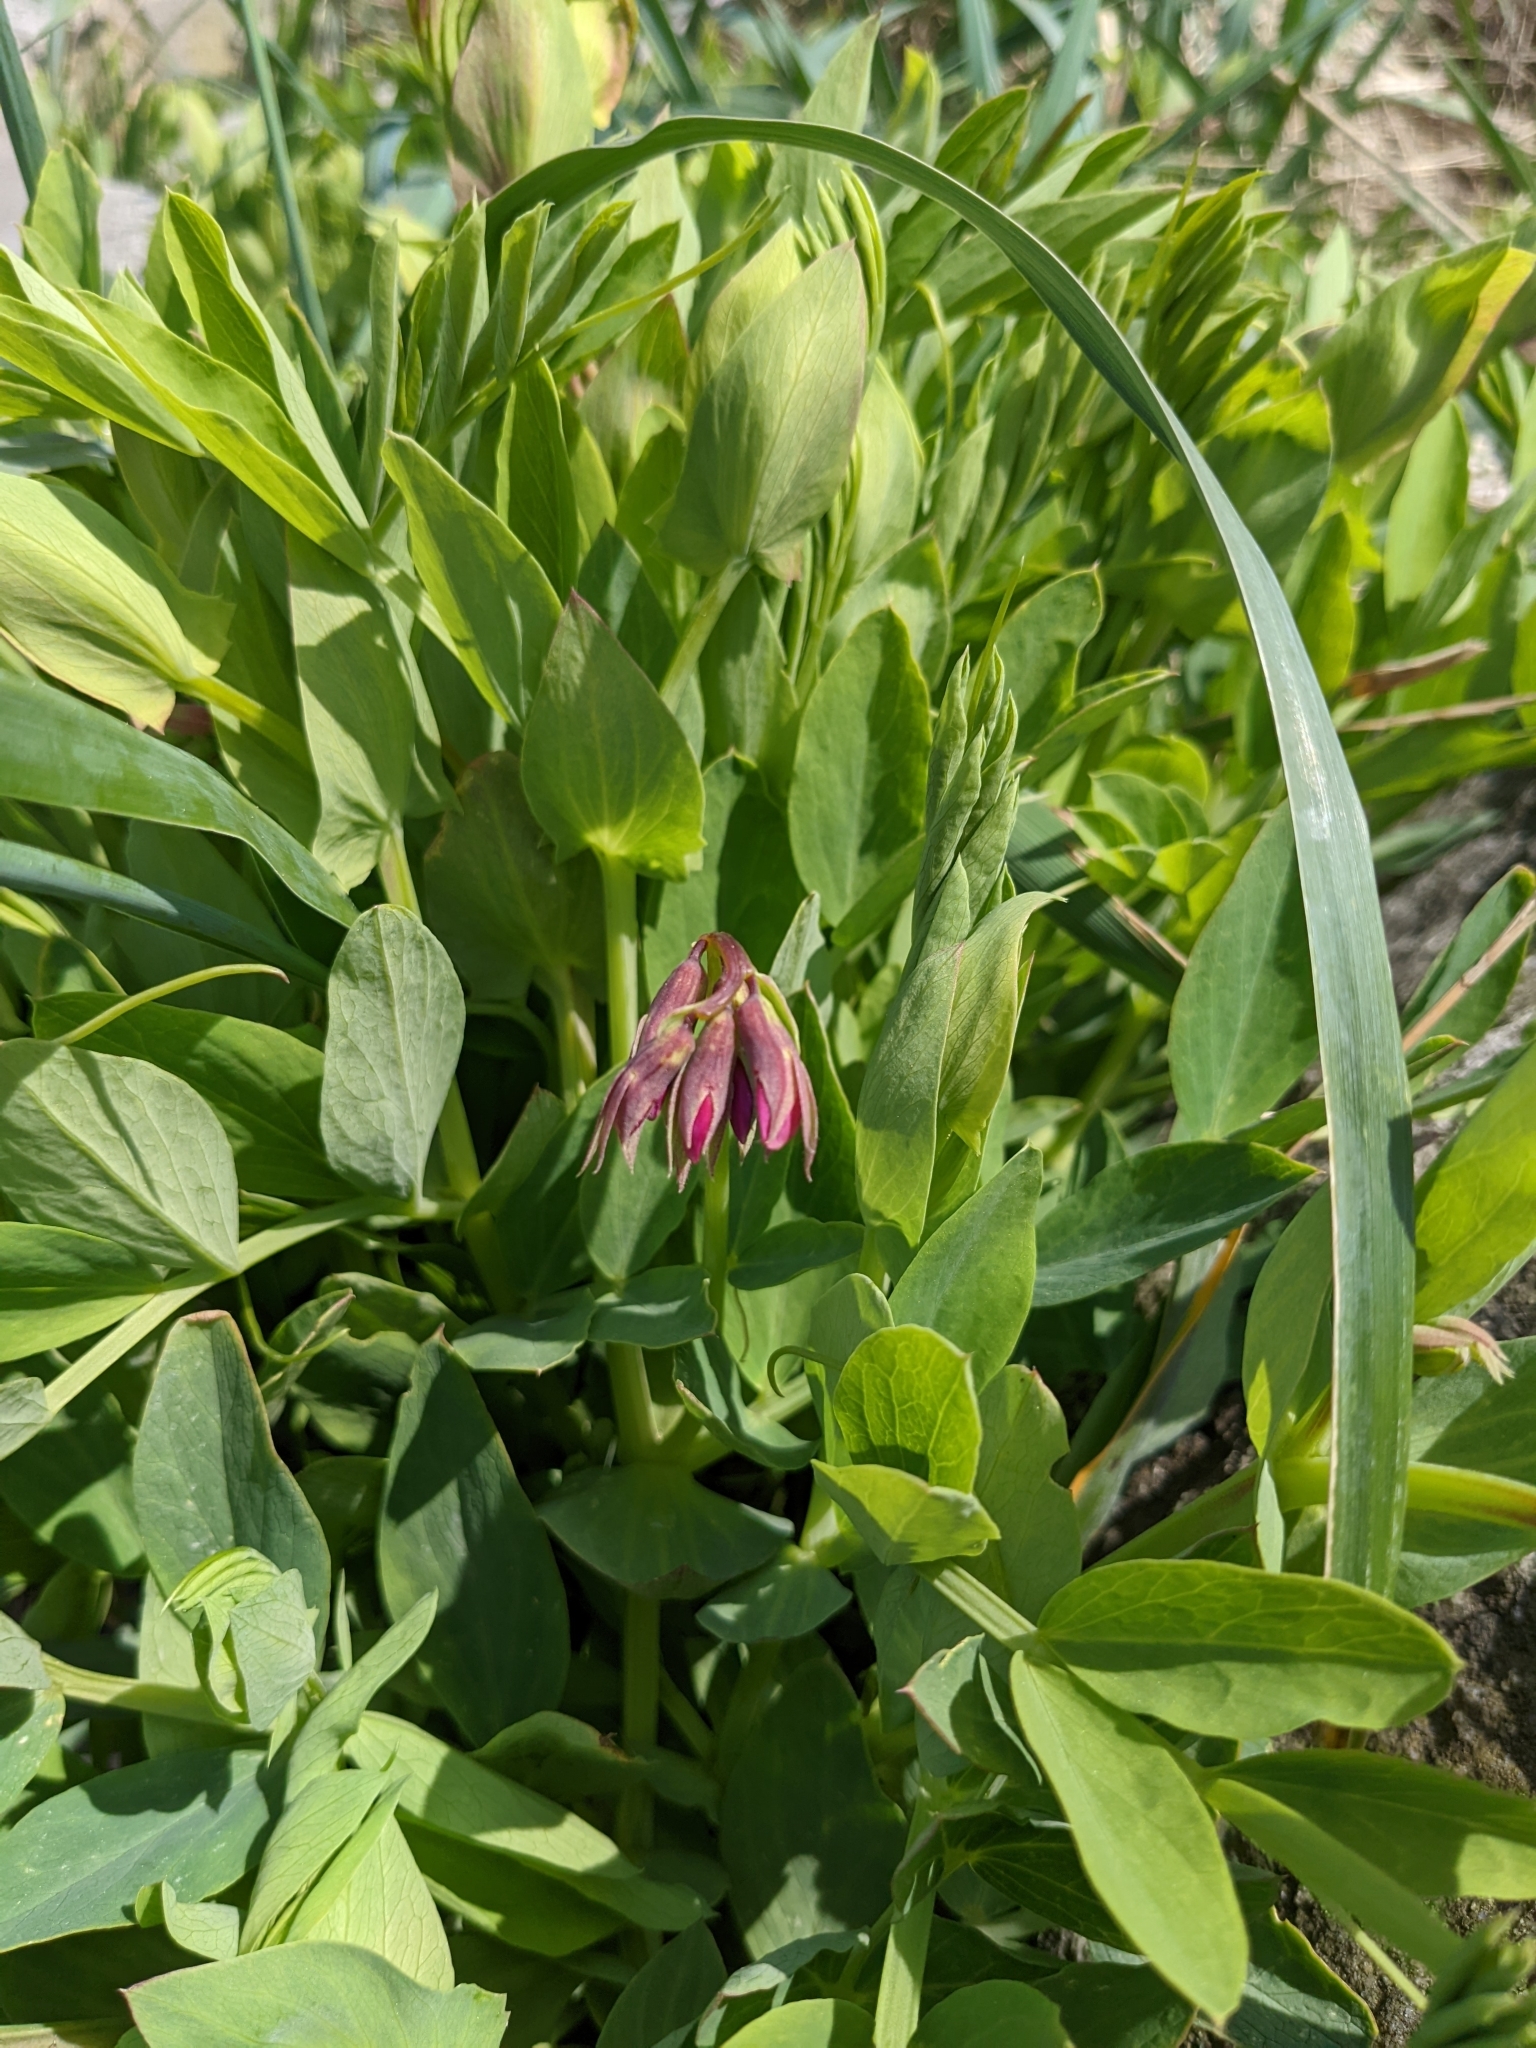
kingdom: Plantae
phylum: Tracheophyta
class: Magnoliopsida
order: Fabales
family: Fabaceae
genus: Lathyrus
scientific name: Lathyrus japonicus
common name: Sea pea
